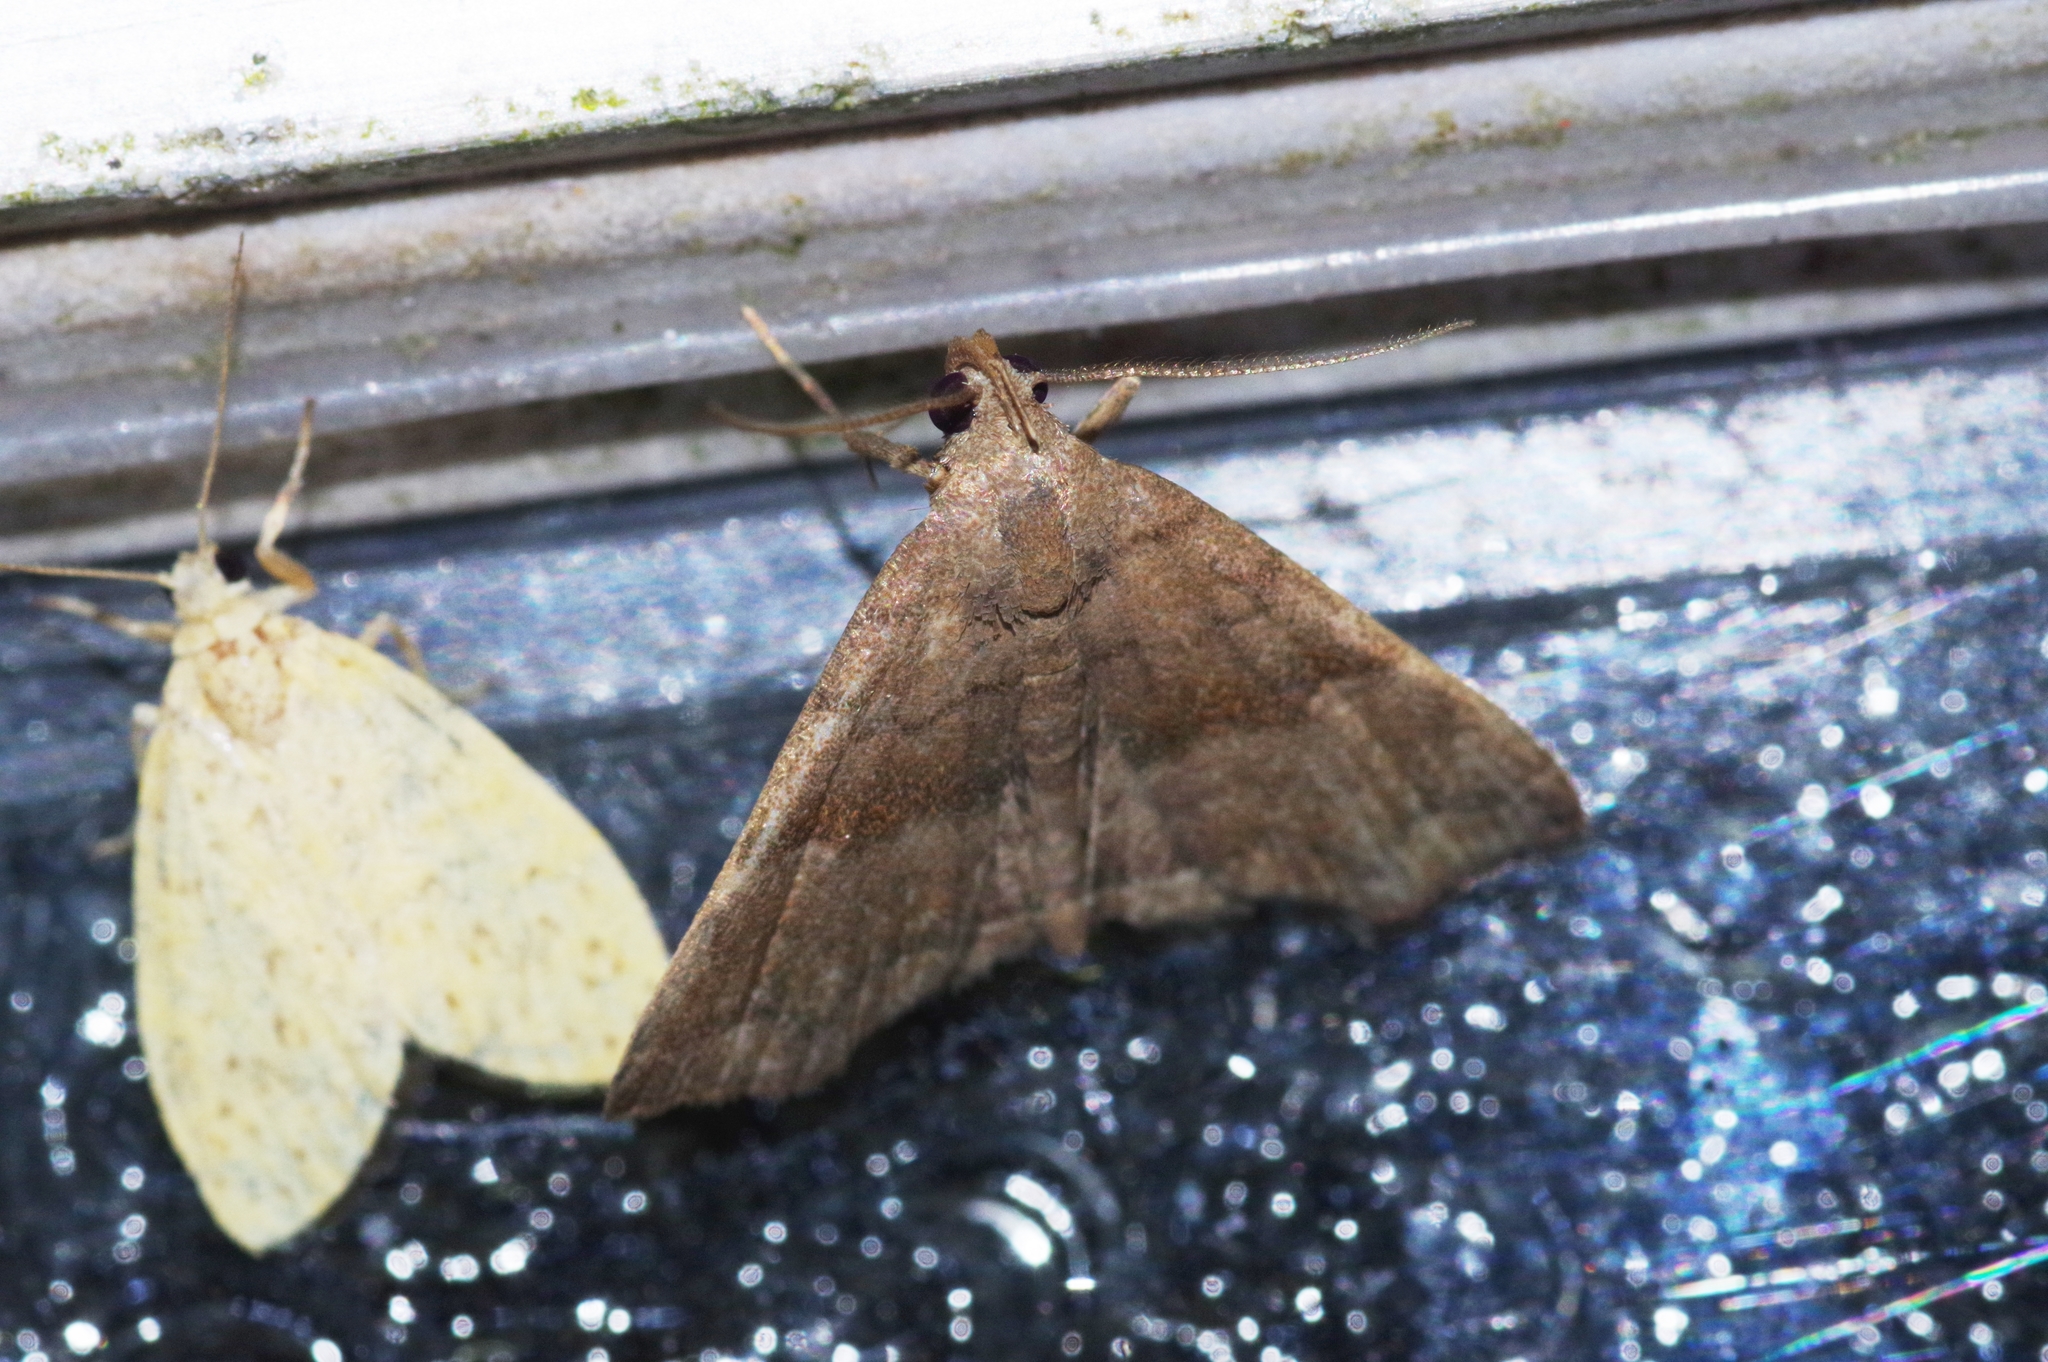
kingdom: Animalia
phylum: Arthropoda
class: Insecta
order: Lepidoptera
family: Erebidae
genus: Polypogon
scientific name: Polypogon Hipoepa fractalis
